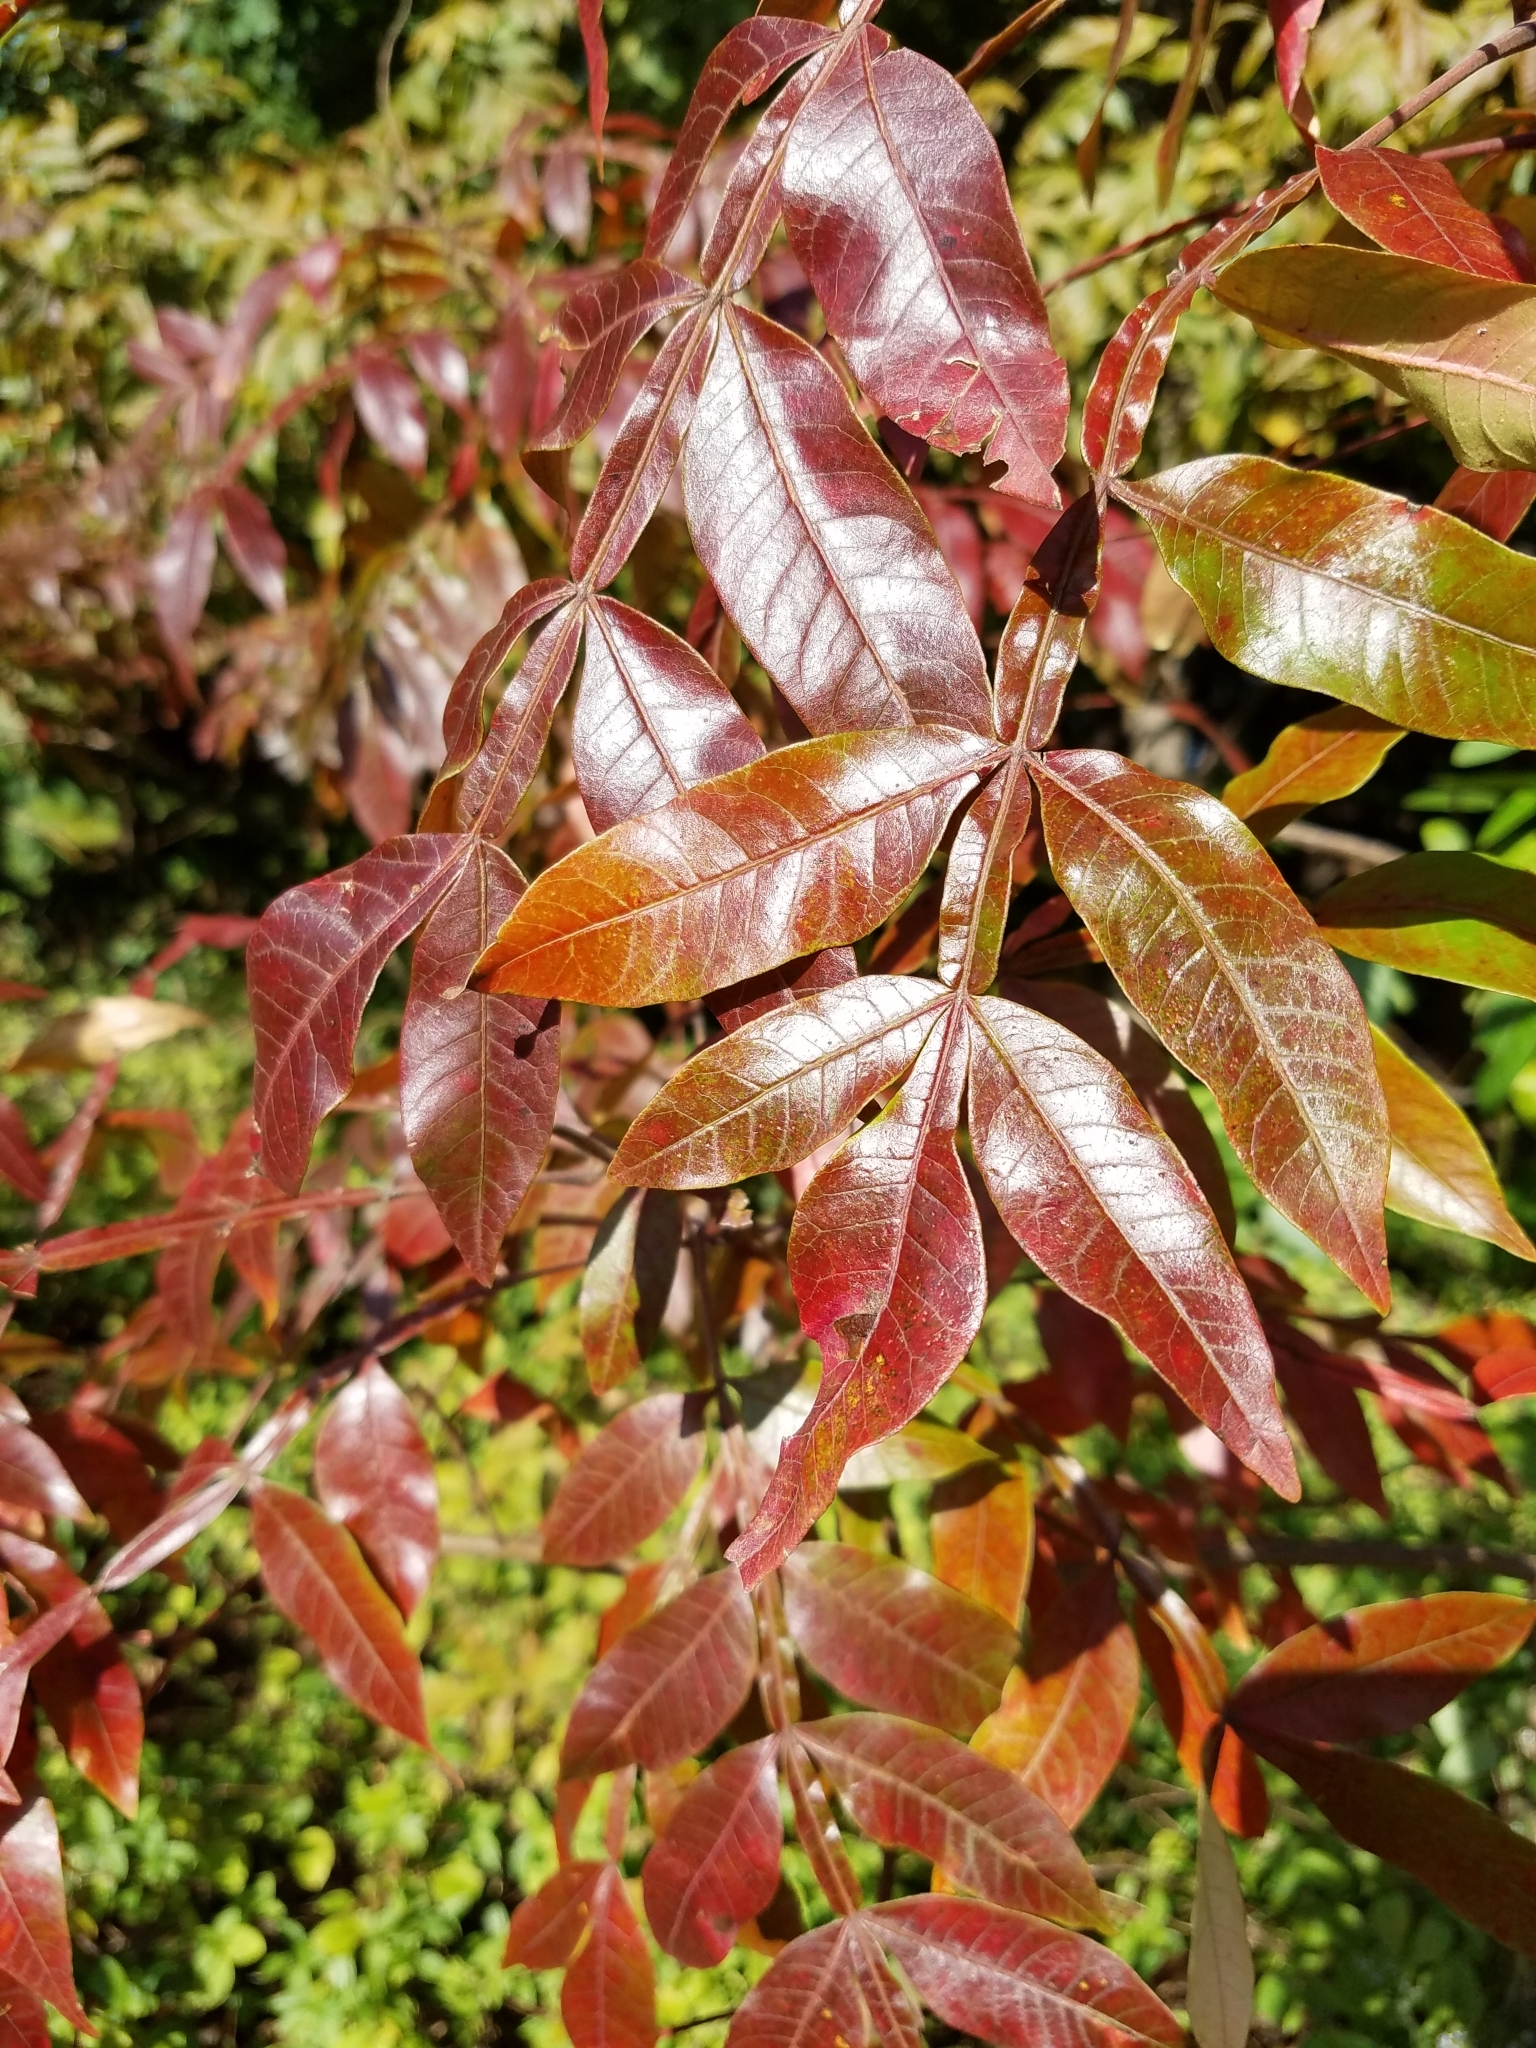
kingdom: Plantae
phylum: Tracheophyta
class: Magnoliopsida
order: Sapindales
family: Anacardiaceae
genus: Rhus
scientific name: Rhus copallina
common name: Shining sumac
